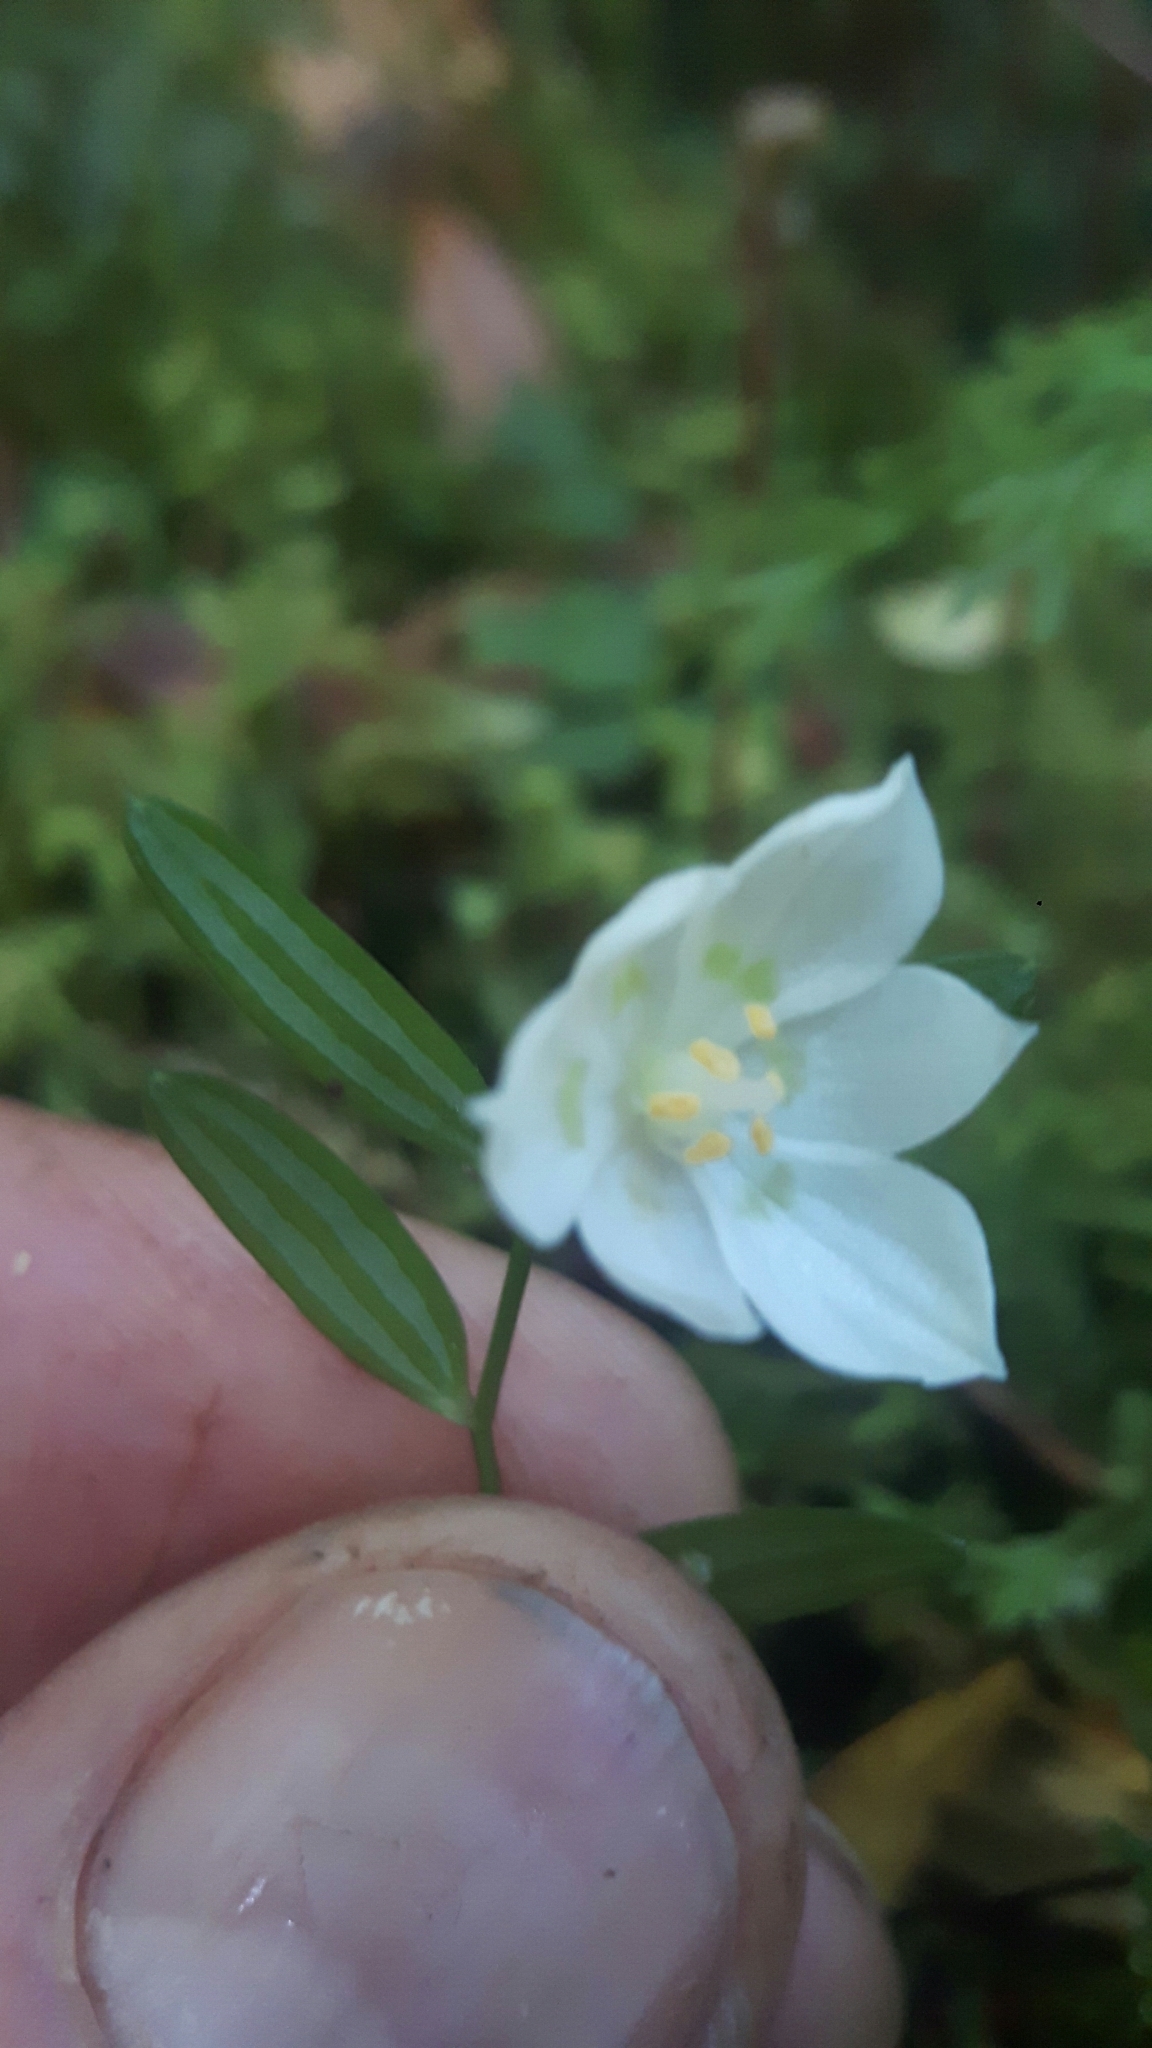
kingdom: Plantae
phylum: Tracheophyta
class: Liliopsida
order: Liliales
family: Alstroemeriaceae
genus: Luzuriaga
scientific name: Luzuriaga parviflora
